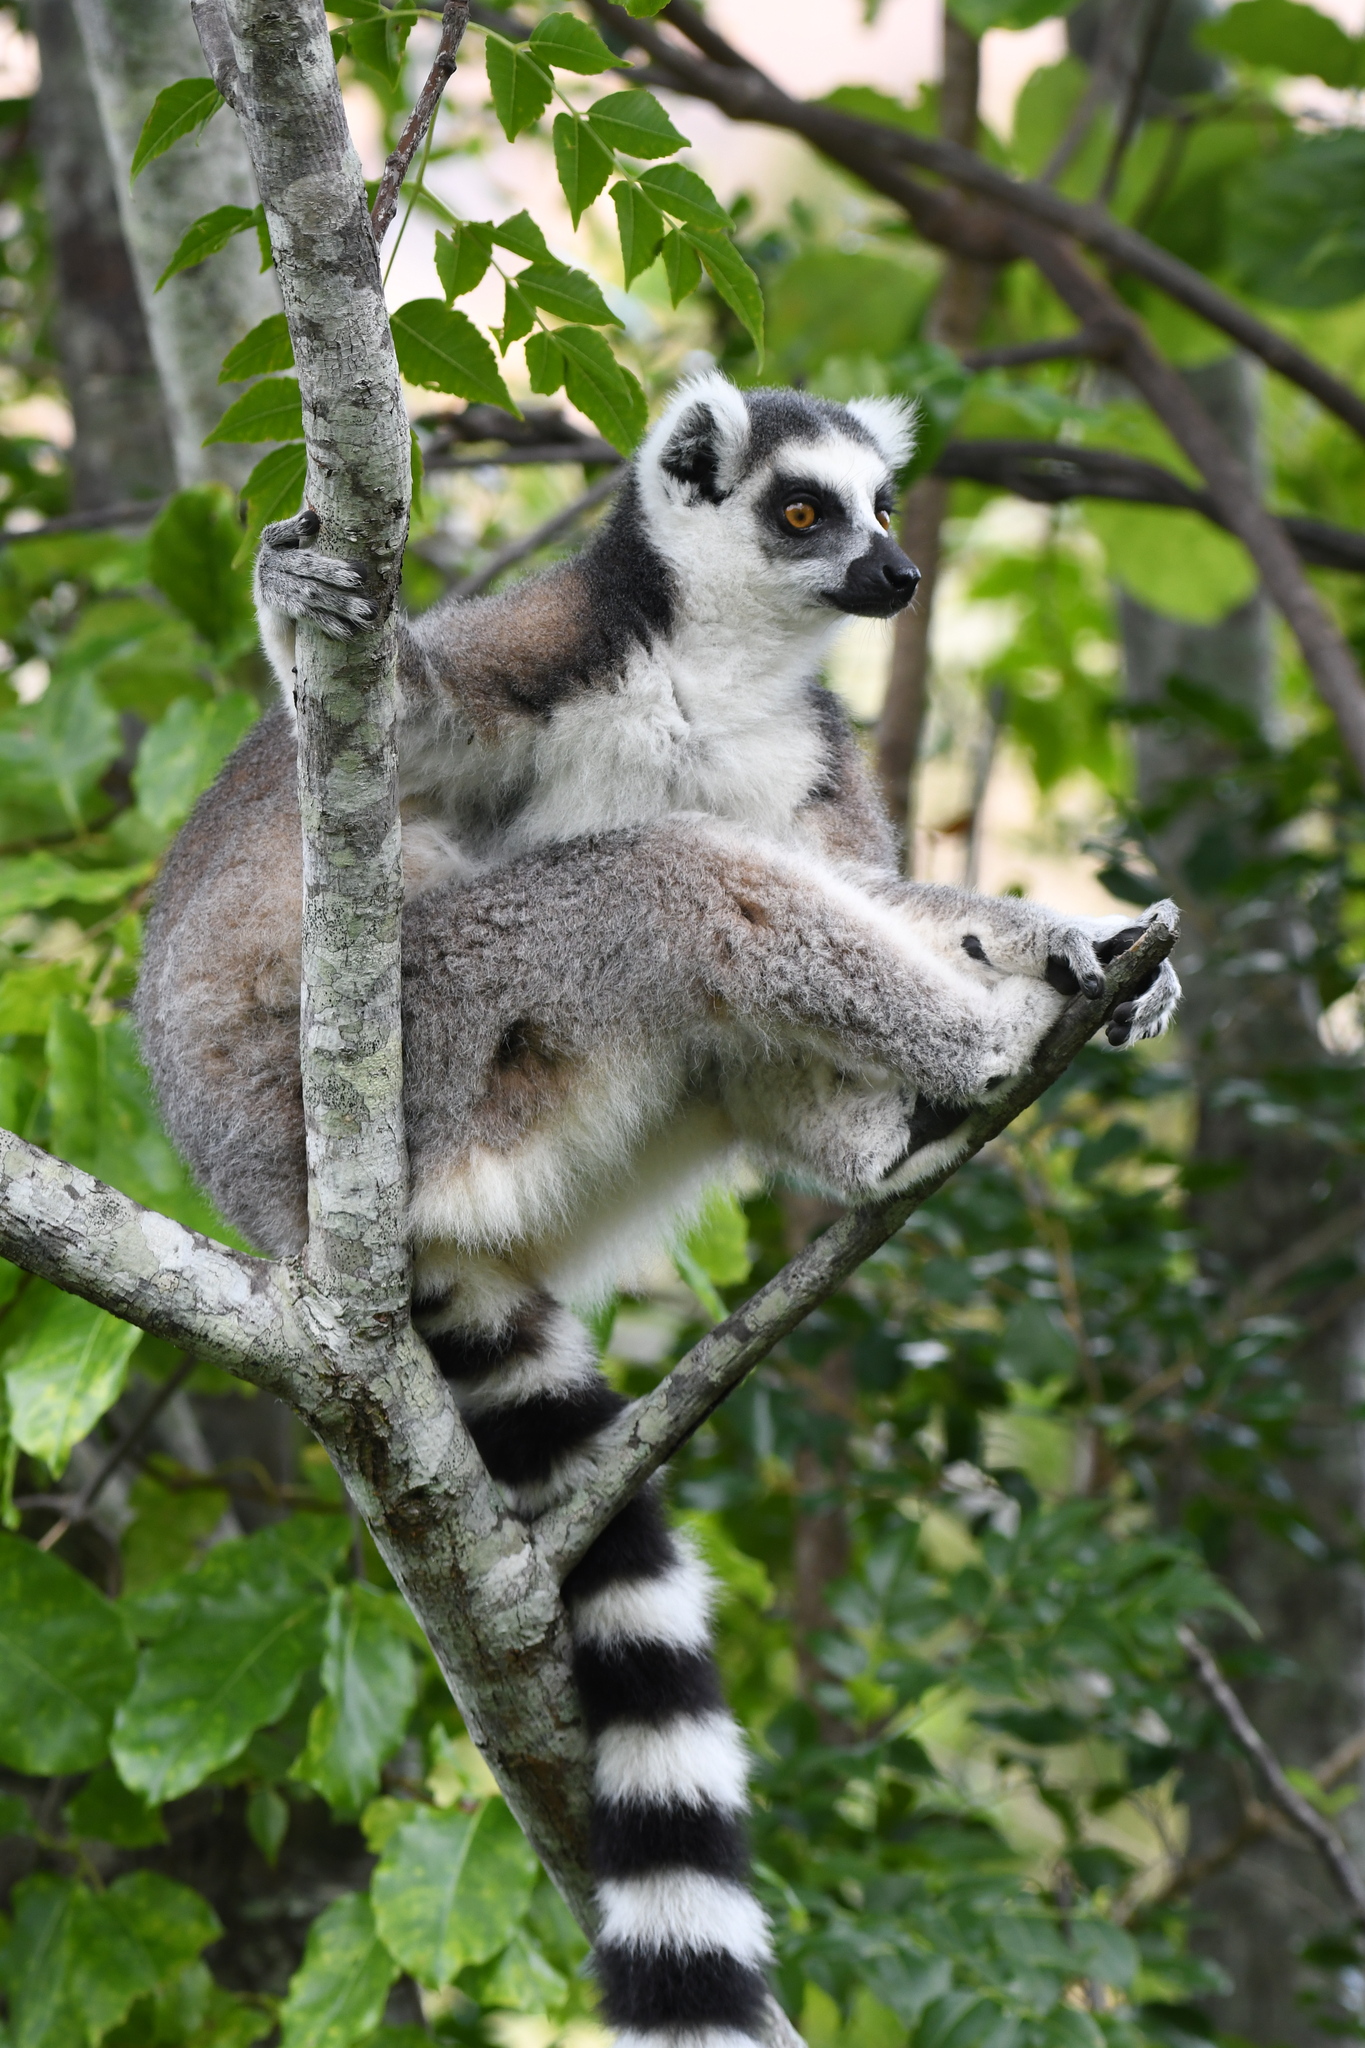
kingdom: Animalia
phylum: Chordata
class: Mammalia
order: Primates
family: Lemuridae
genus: Lemur
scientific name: Lemur catta
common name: Ring-tailed lemur
